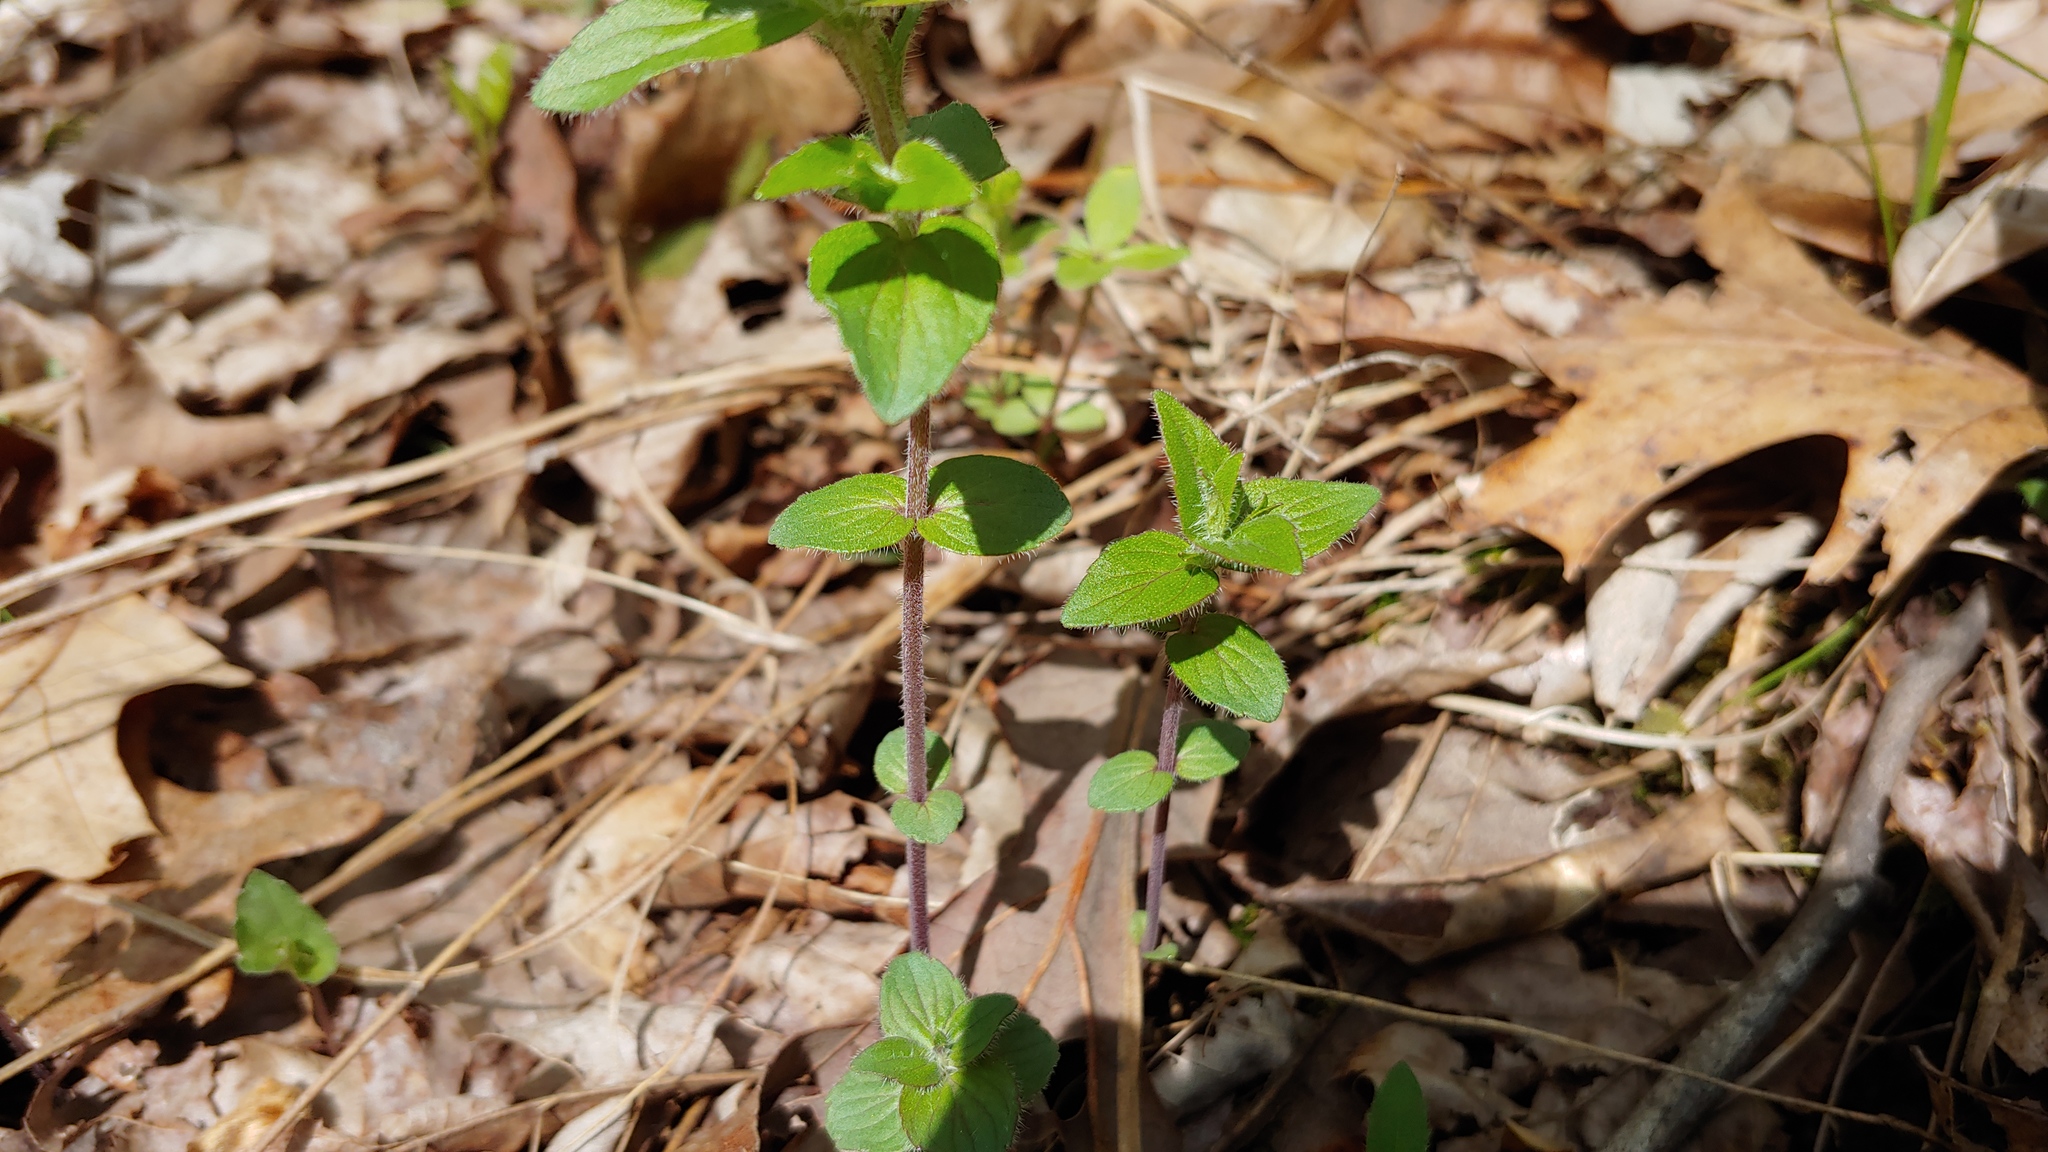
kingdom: Plantae
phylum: Tracheophyta
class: Magnoliopsida
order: Lamiales
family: Lamiaceae
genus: Cunila
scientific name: Cunila origanoides
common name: American dittany
